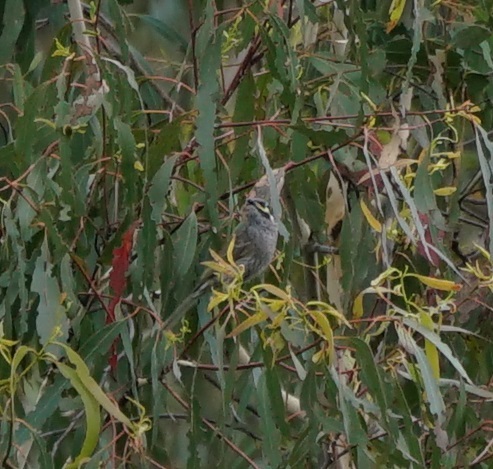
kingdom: Animalia
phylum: Chordata
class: Aves
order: Passeriformes
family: Meliphagidae
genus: Caligavis
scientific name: Caligavis chrysops
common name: Yellow-faced honeyeater
